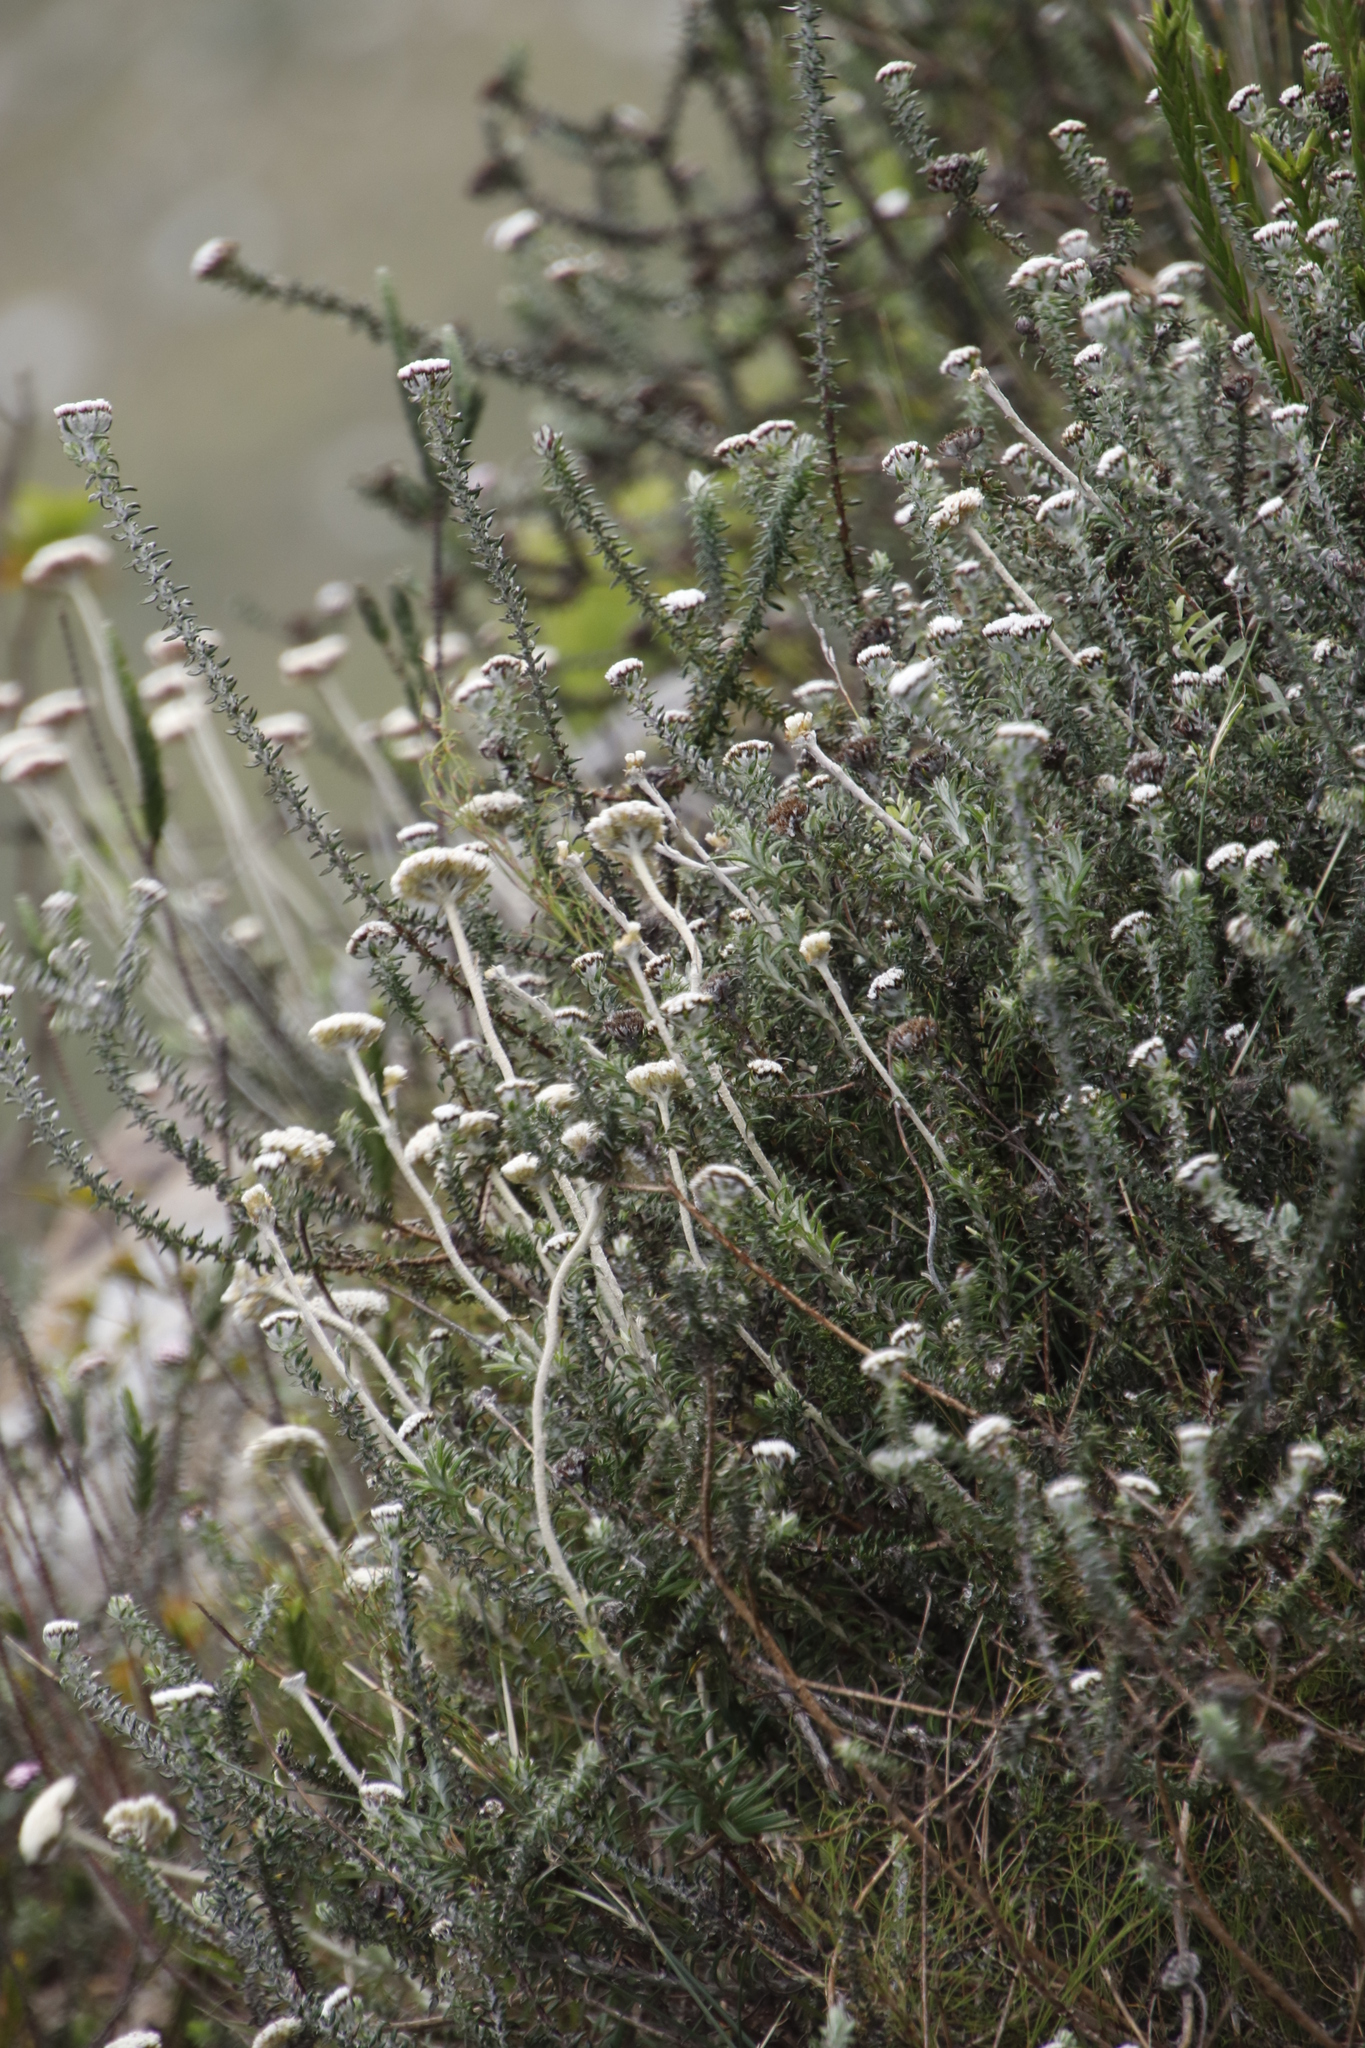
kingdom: Plantae
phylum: Tracheophyta
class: Magnoliopsida
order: Asterales
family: Asteraceae
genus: Anaxeton
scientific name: Anaxeton arborescens
